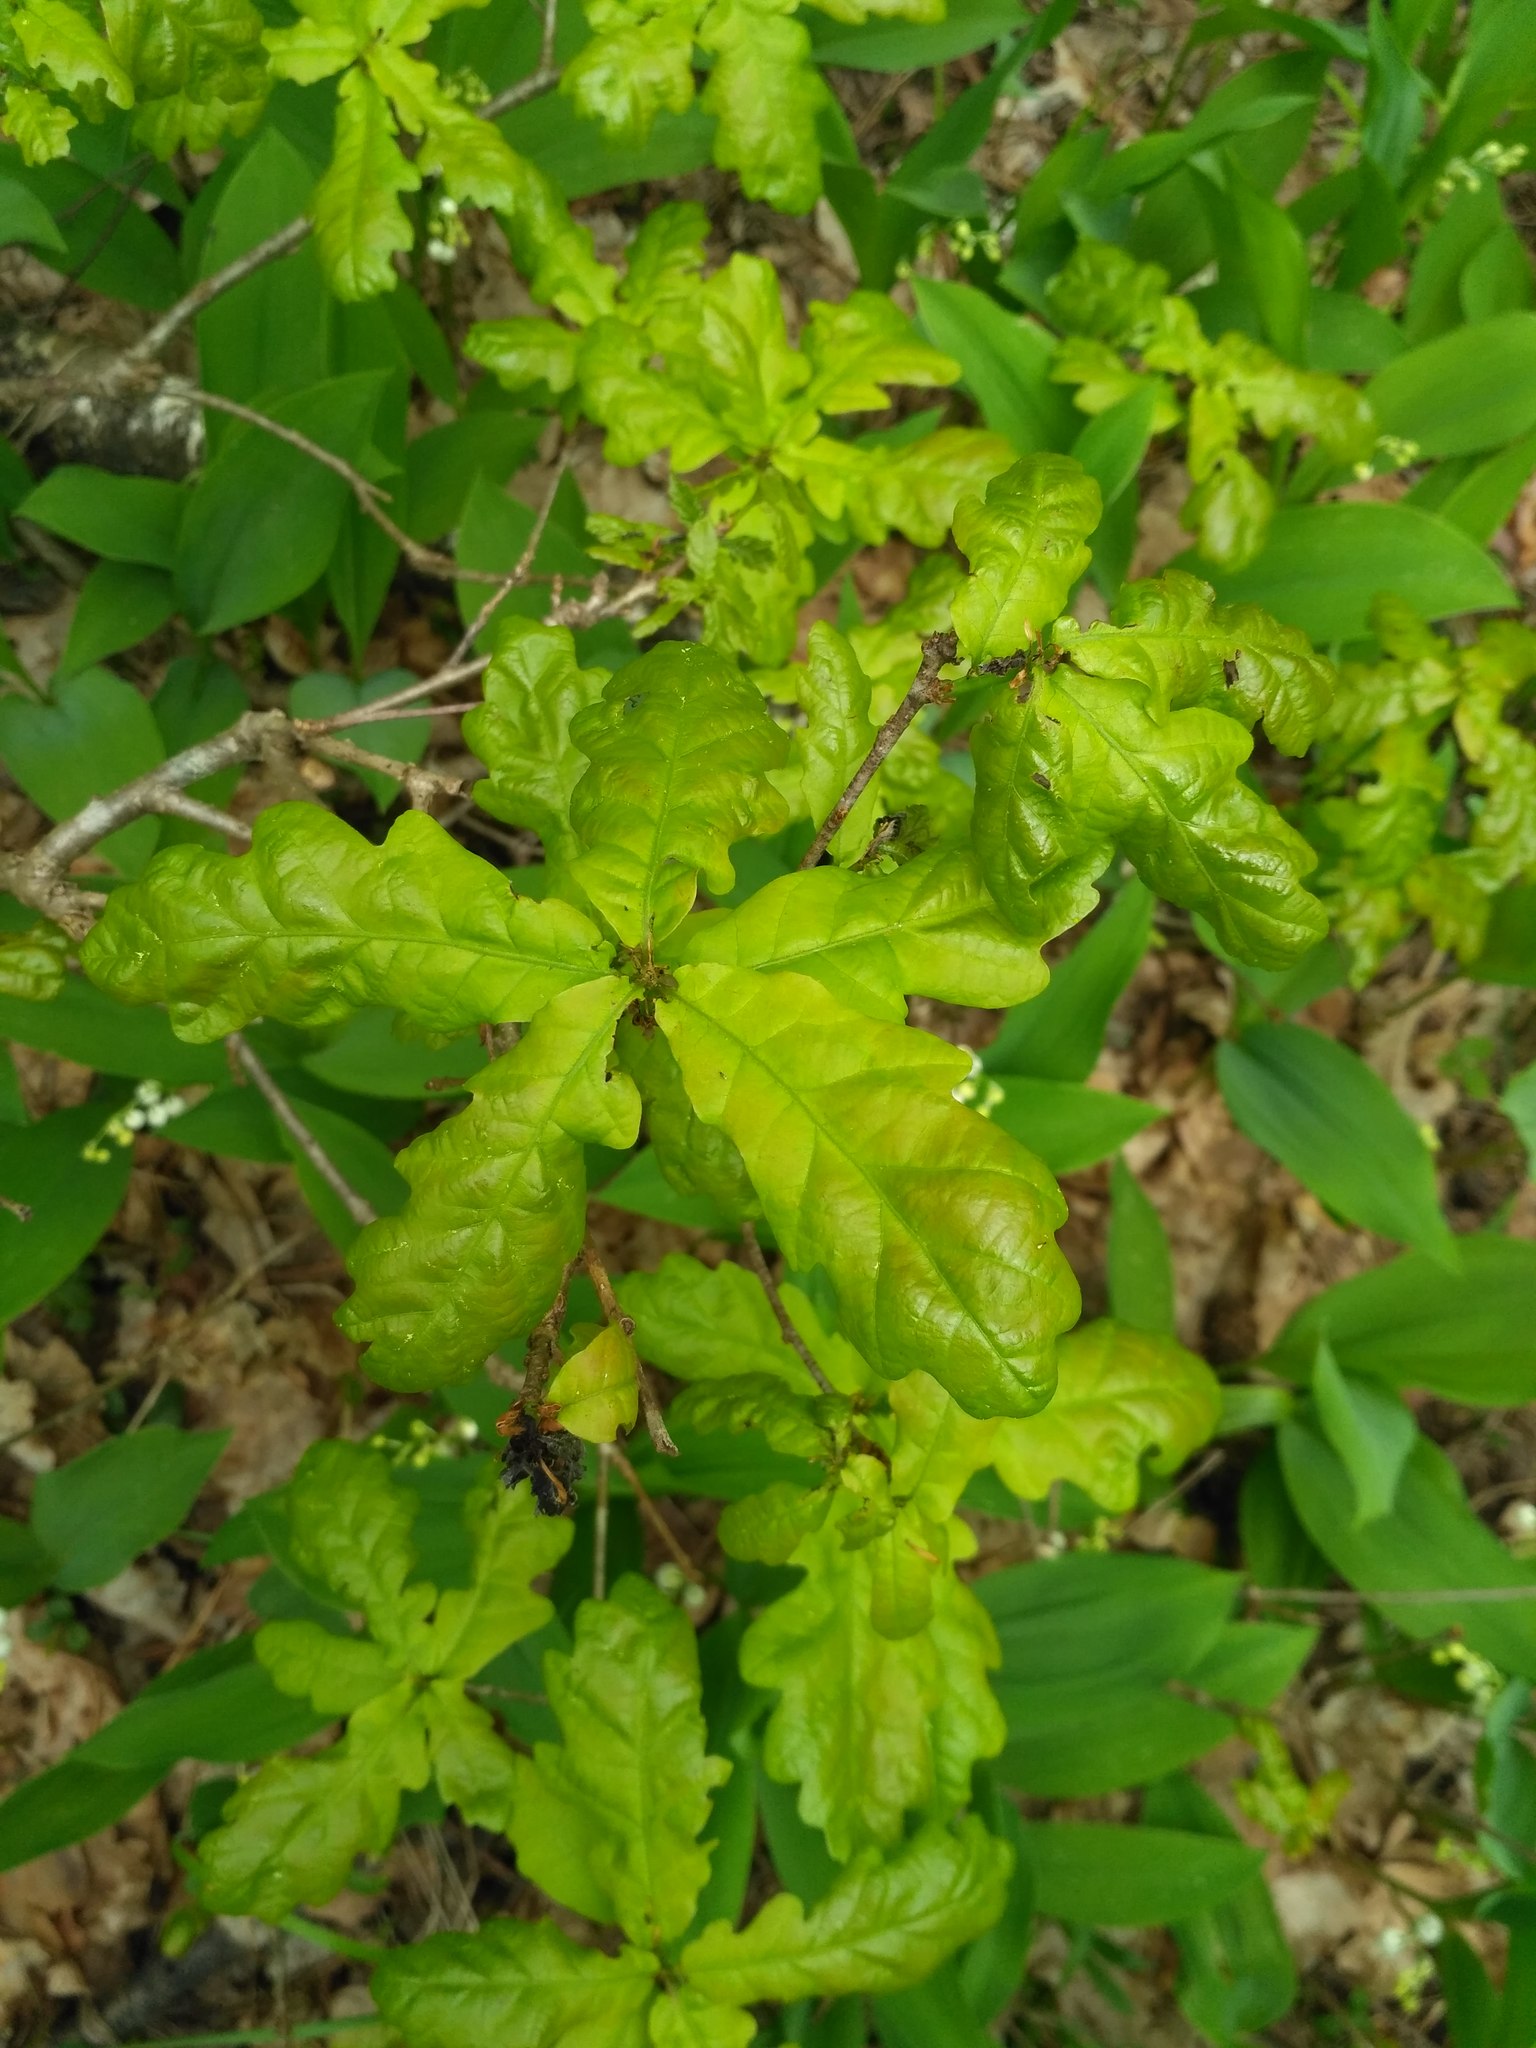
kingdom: Plantae
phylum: Tracheophyta
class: Magnoliopsida
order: Fagales
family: Fagaceae
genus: Quercus
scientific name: Quercus robur
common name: Pedunculate oak
